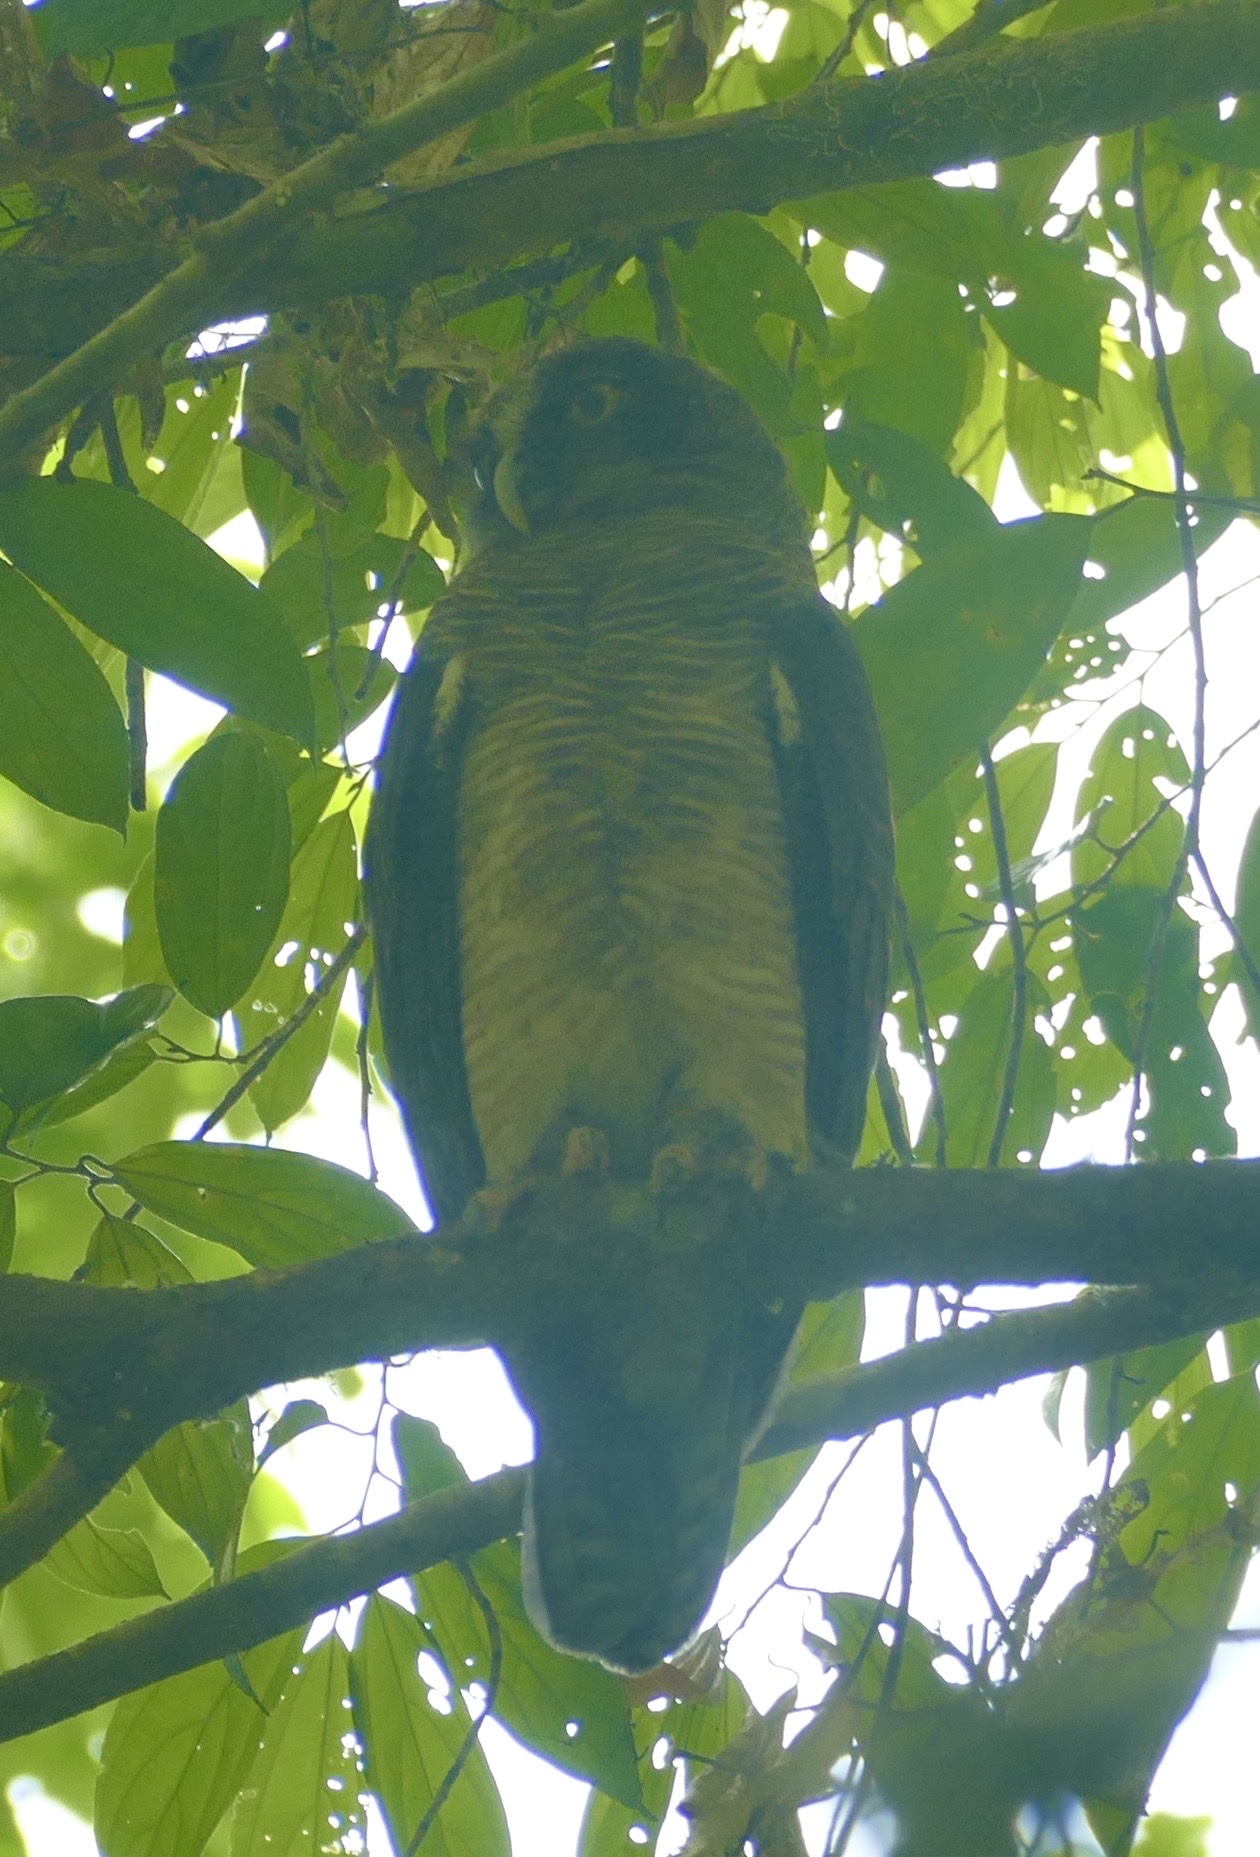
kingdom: Animalia
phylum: Chordata
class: Aves
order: Strigiformes
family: Strigidae
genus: Ninox
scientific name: Ninox rufa
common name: Rufous owl
